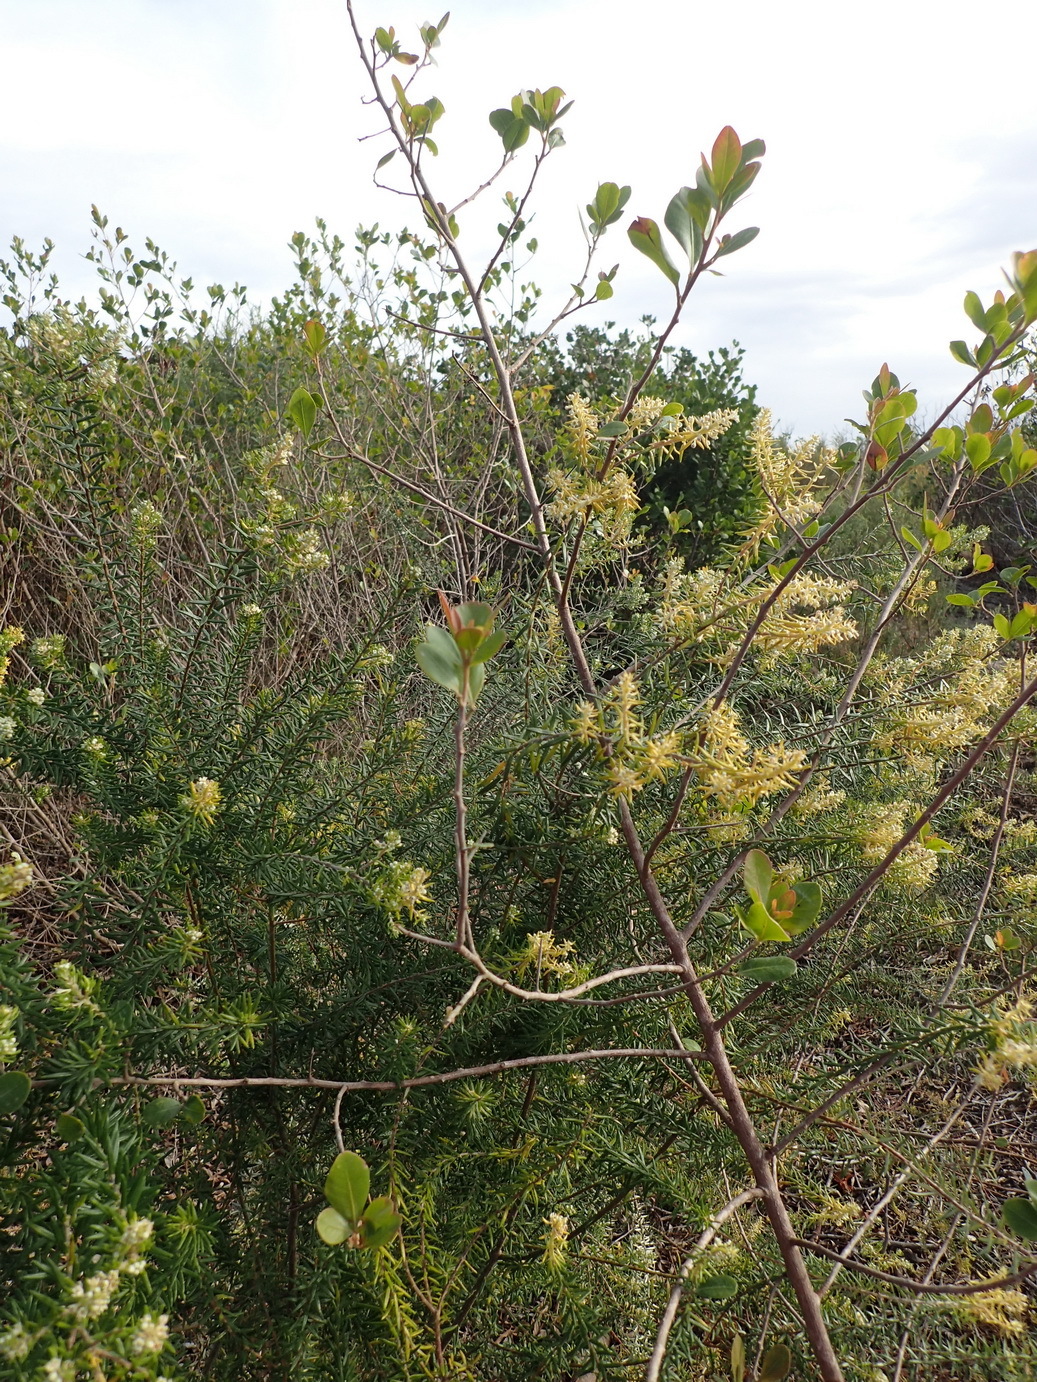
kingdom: Plantae
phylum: Tracheophyta
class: Magnoliopsida
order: Rosales
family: Rhamnaceae
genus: Phylica
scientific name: Phylica axillaris
